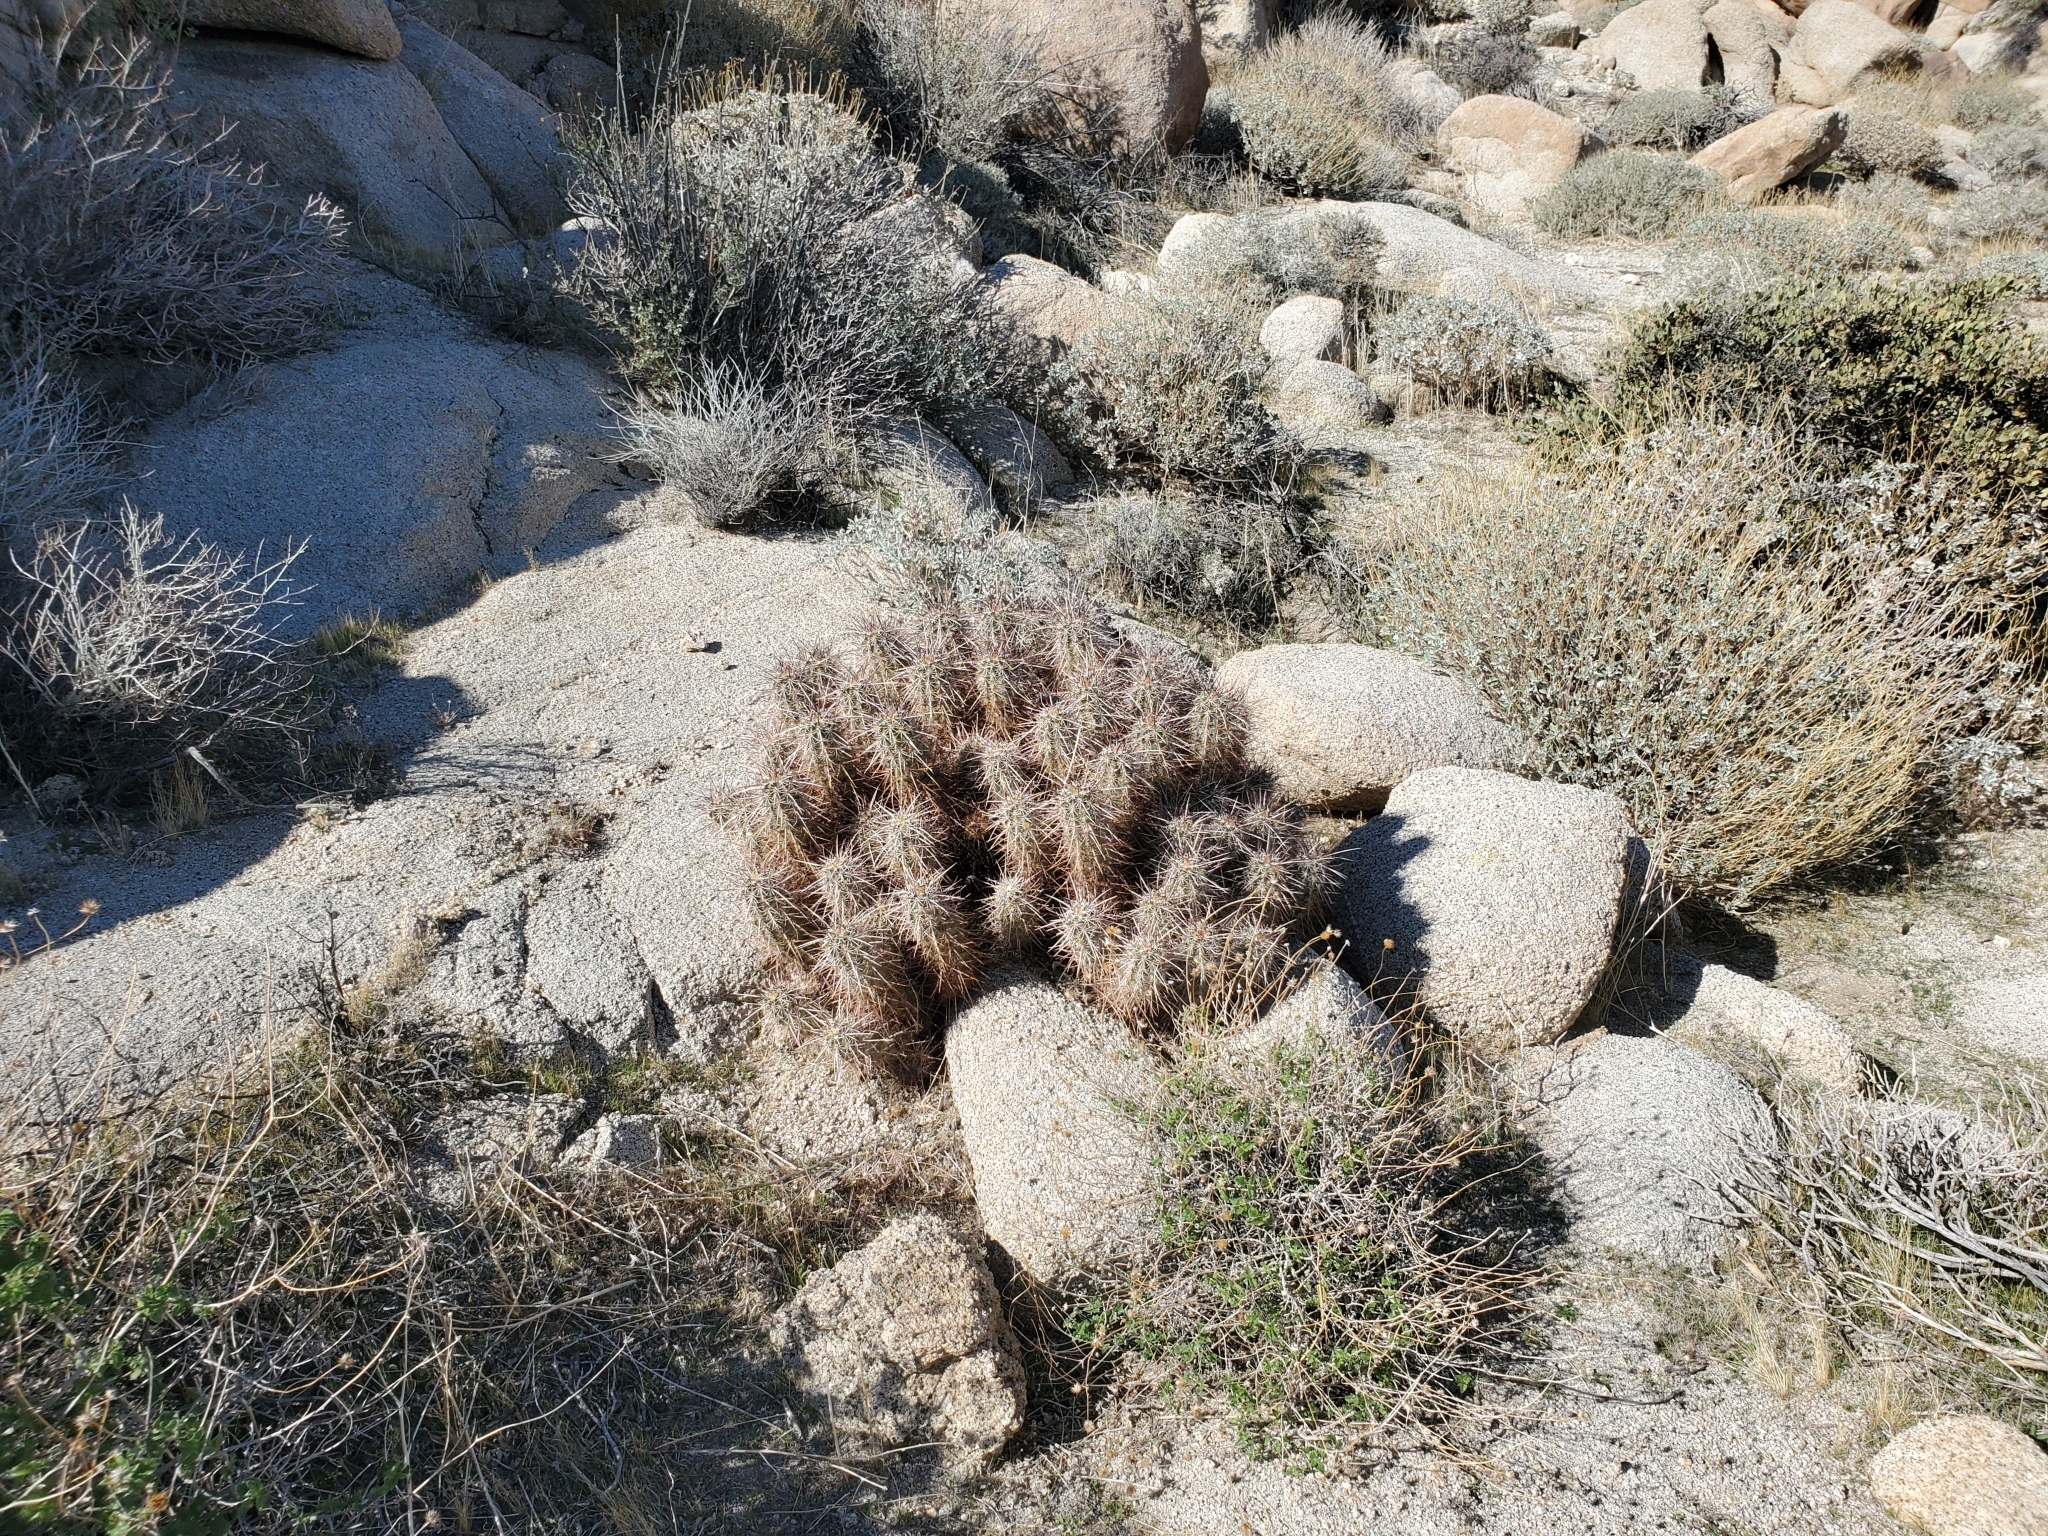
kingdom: Plantae
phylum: Tracheophyta
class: Magnoliopsida
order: Caryophyllales
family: Cactaceae
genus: Echinocereus
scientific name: Echinocereus engelmannii
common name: Engelmann's hedgehog cactus
